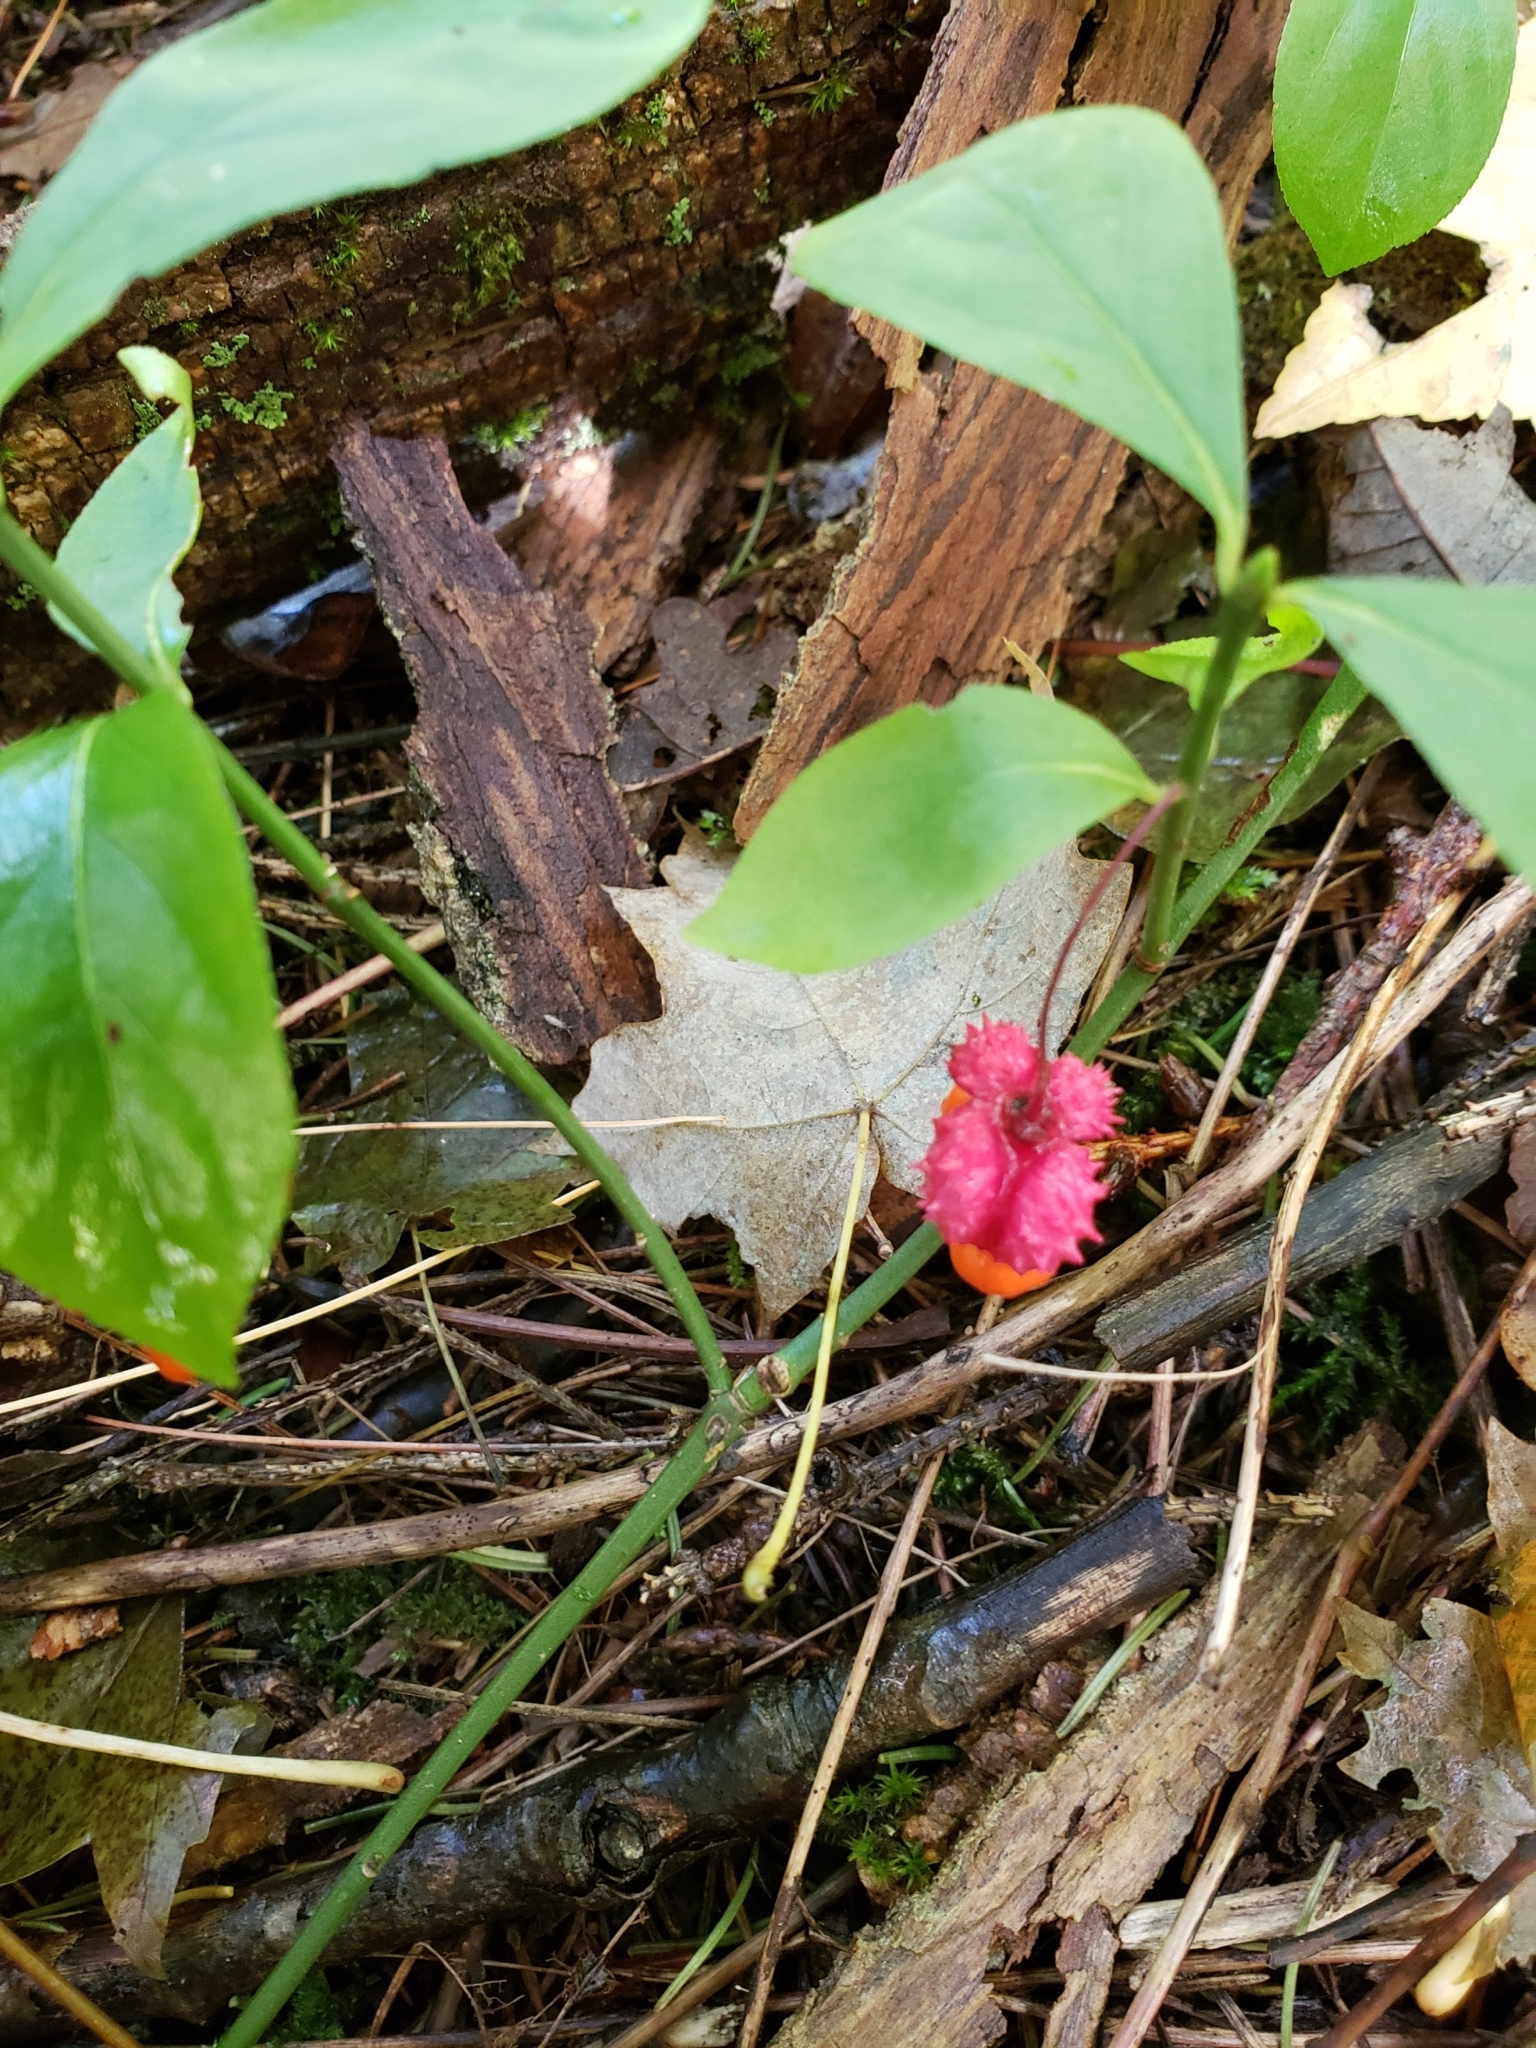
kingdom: Plantae
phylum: Tracheophyta
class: Magnoliopsida
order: Celastrales
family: Celastraceae
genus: Euonymus
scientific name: Euonymus obovatus
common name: Running strawberry-bush
